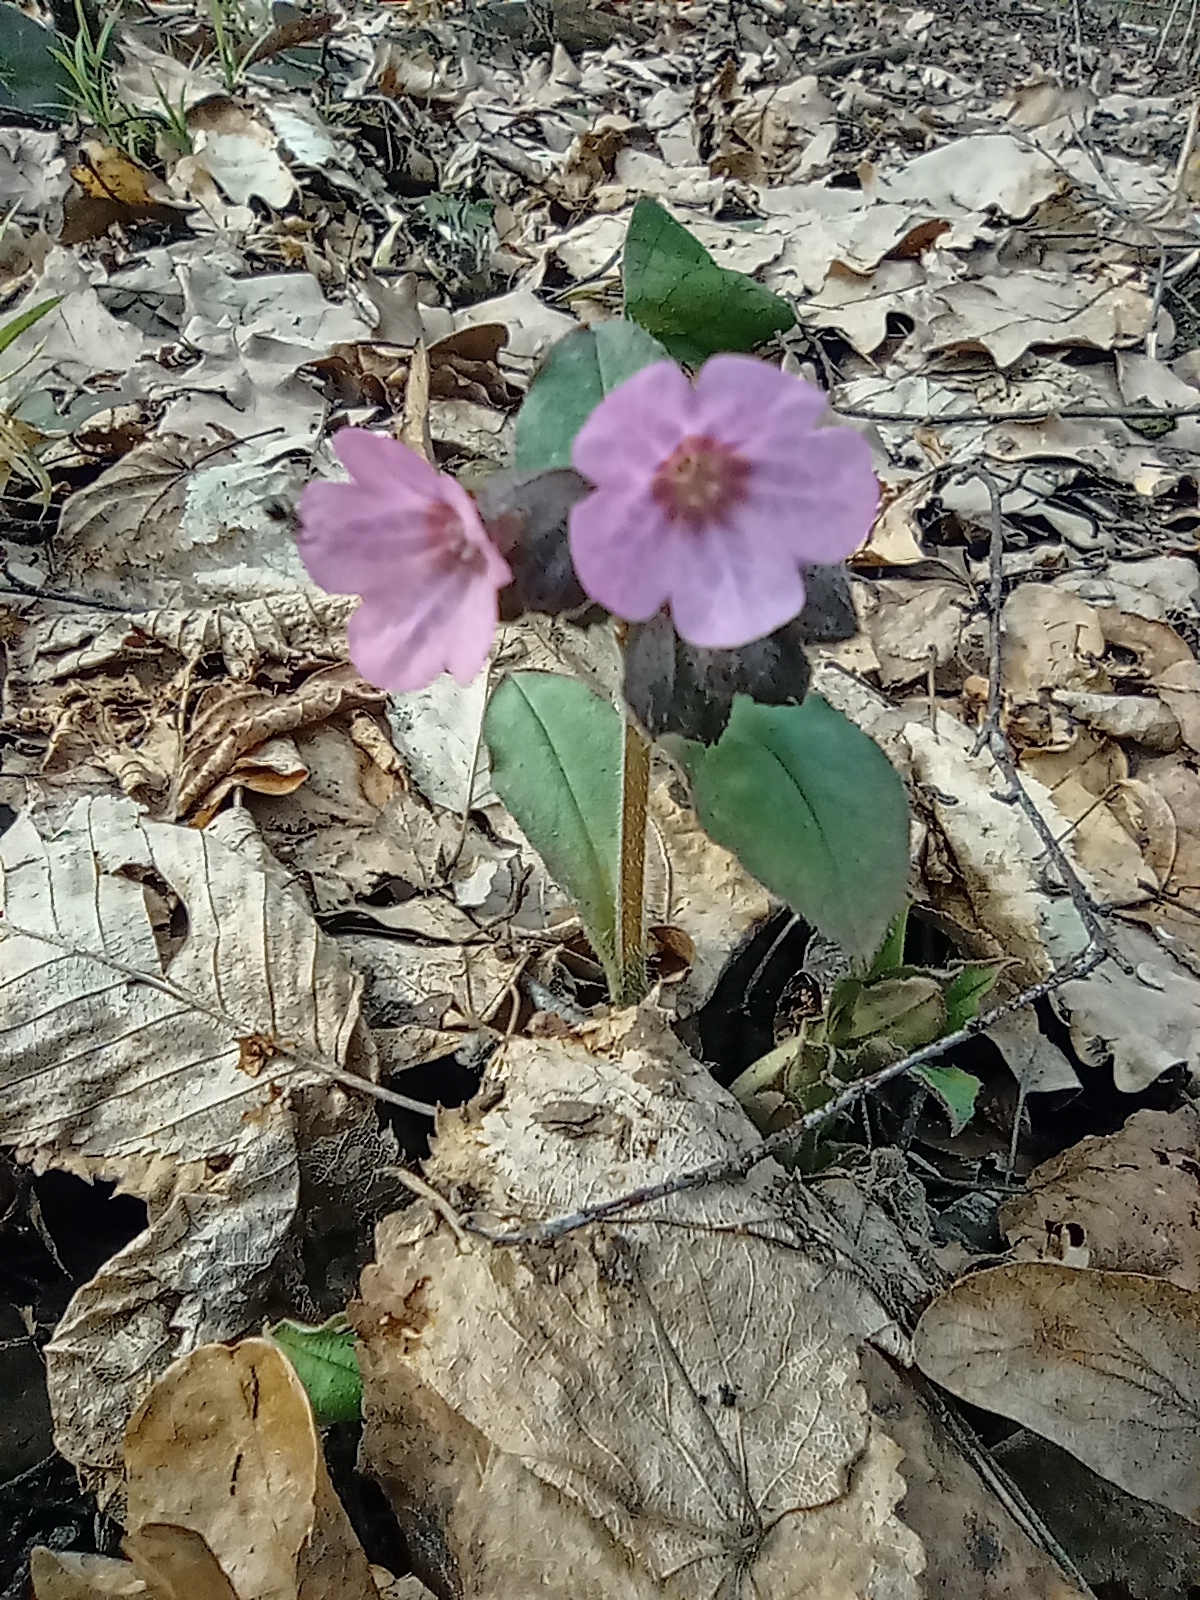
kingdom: Plantae
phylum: Tracheophyta
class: Magnoliopsida
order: Boraginales
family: Boraginaceae
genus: Pulmonaria
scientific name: Pulmonaria obscura
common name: Suffolk lungwort
